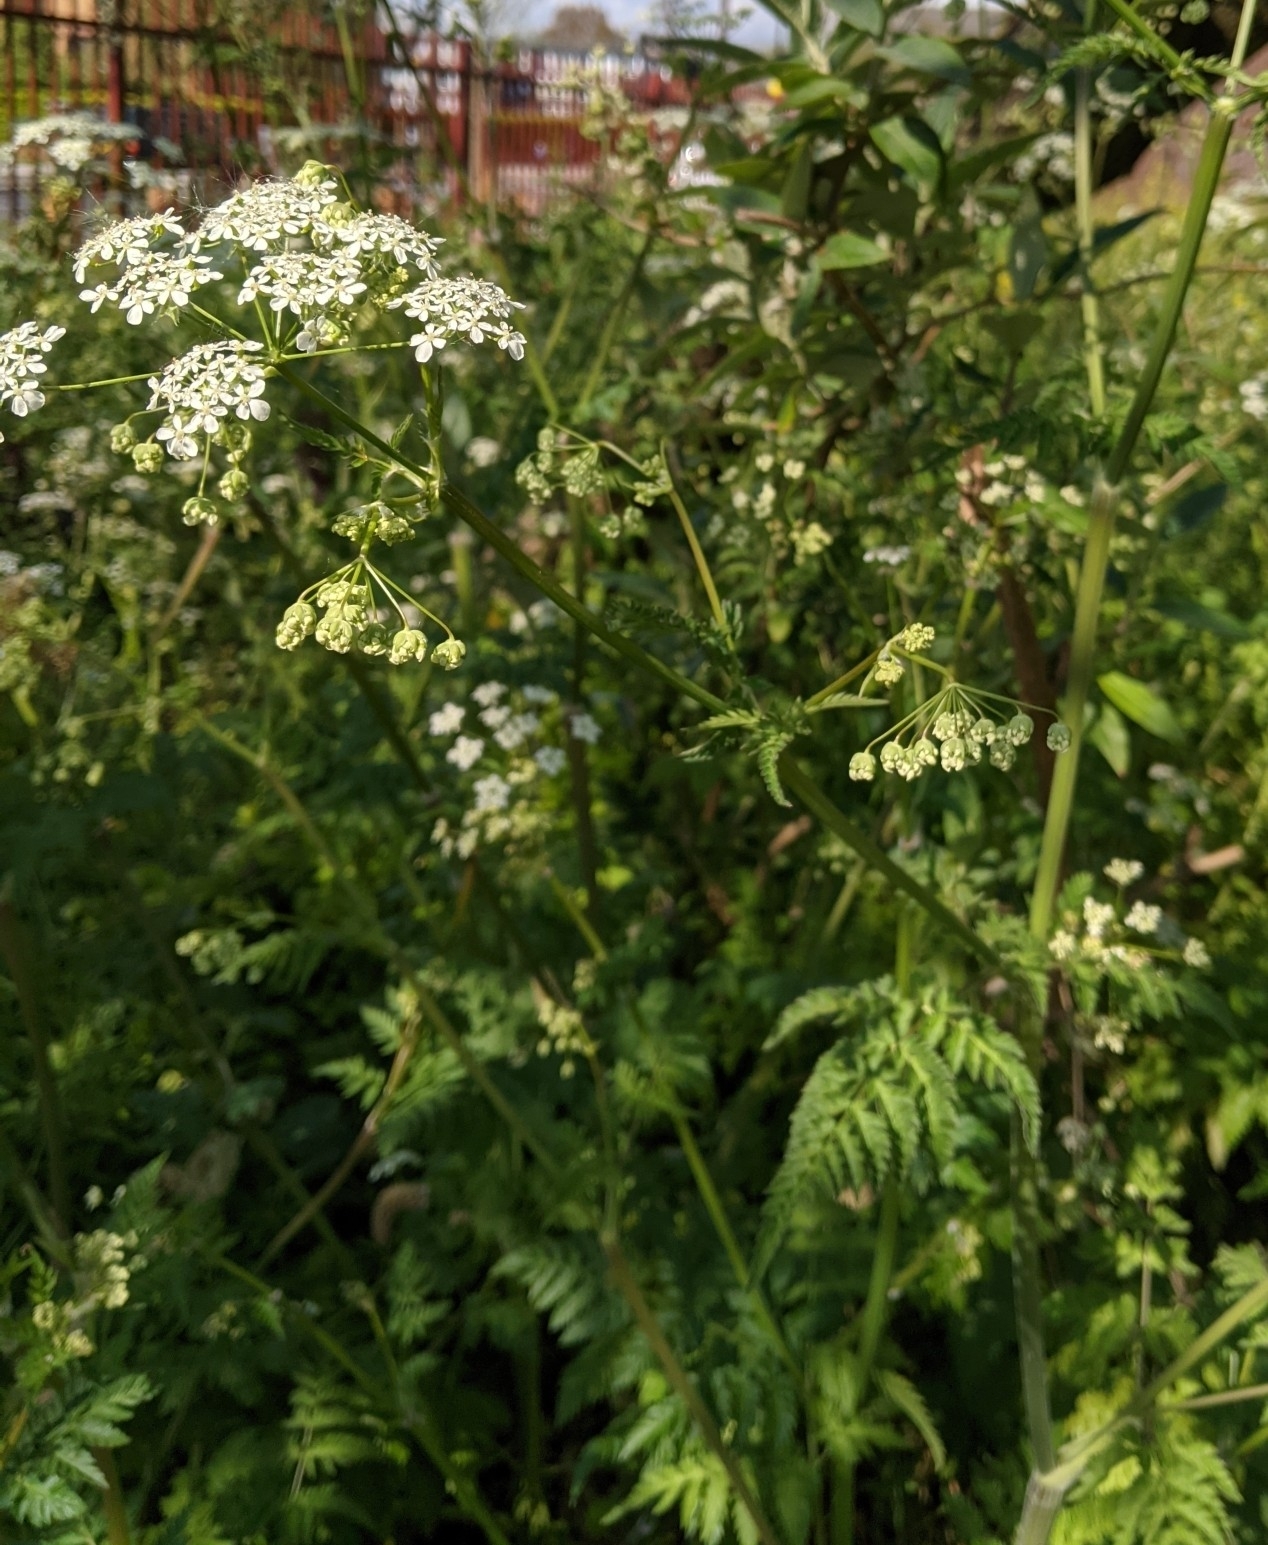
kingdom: Plantae
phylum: Tracheophyta
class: Magnoliopsida
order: Apiales
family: Apiaceae
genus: Anthriscus
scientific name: Anthriscus sylvestris
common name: Cow parsley
